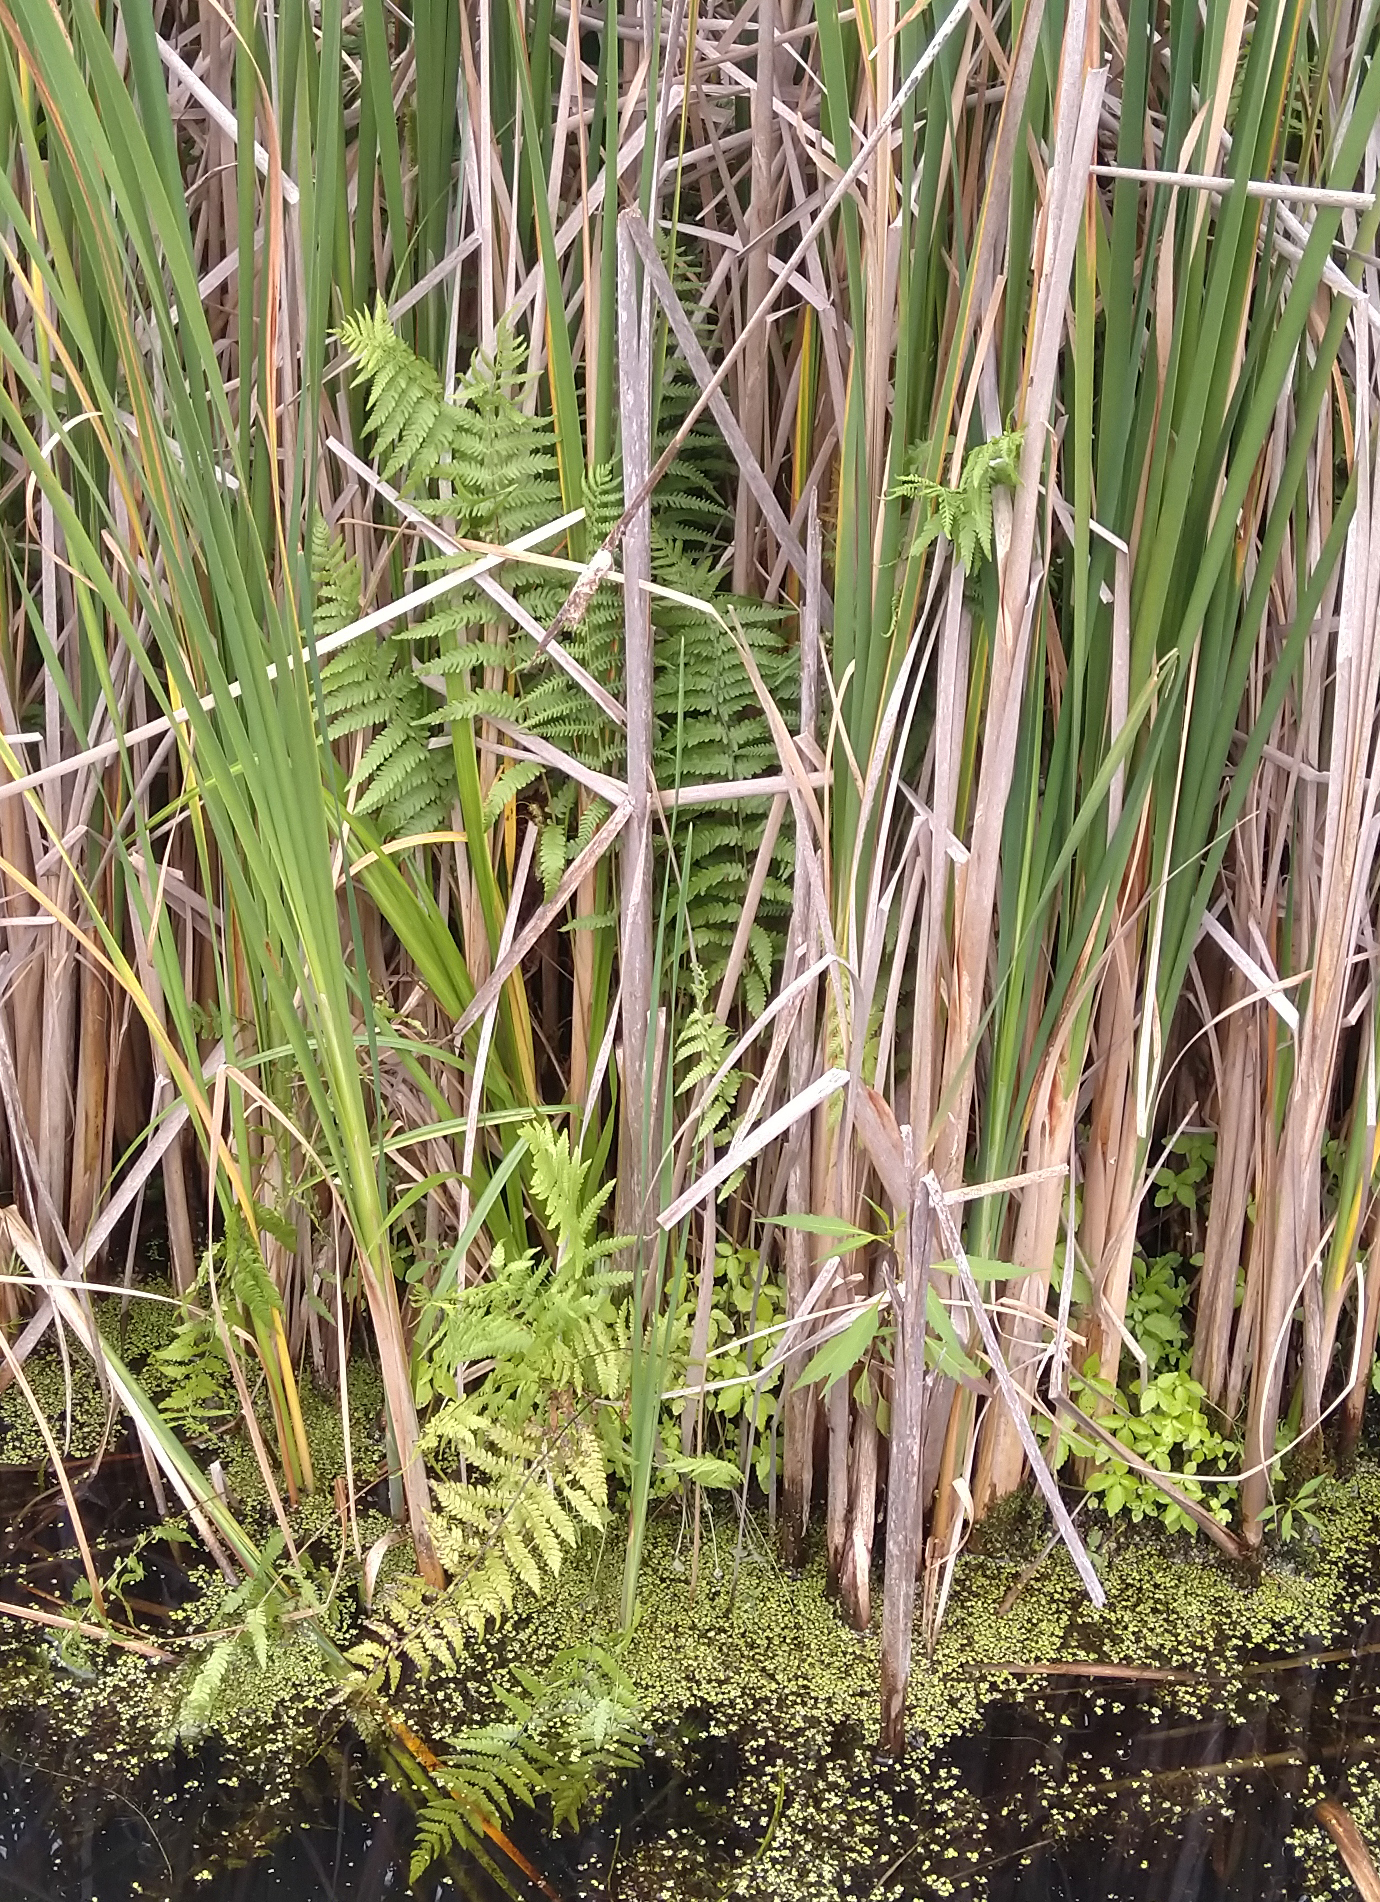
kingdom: Plantae
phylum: Tracheophyta
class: Polypodiopsida
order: Polypodiales
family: Thelypteridaceae
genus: Thelypteris
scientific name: Thelypteris palustris
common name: Marsh fern
